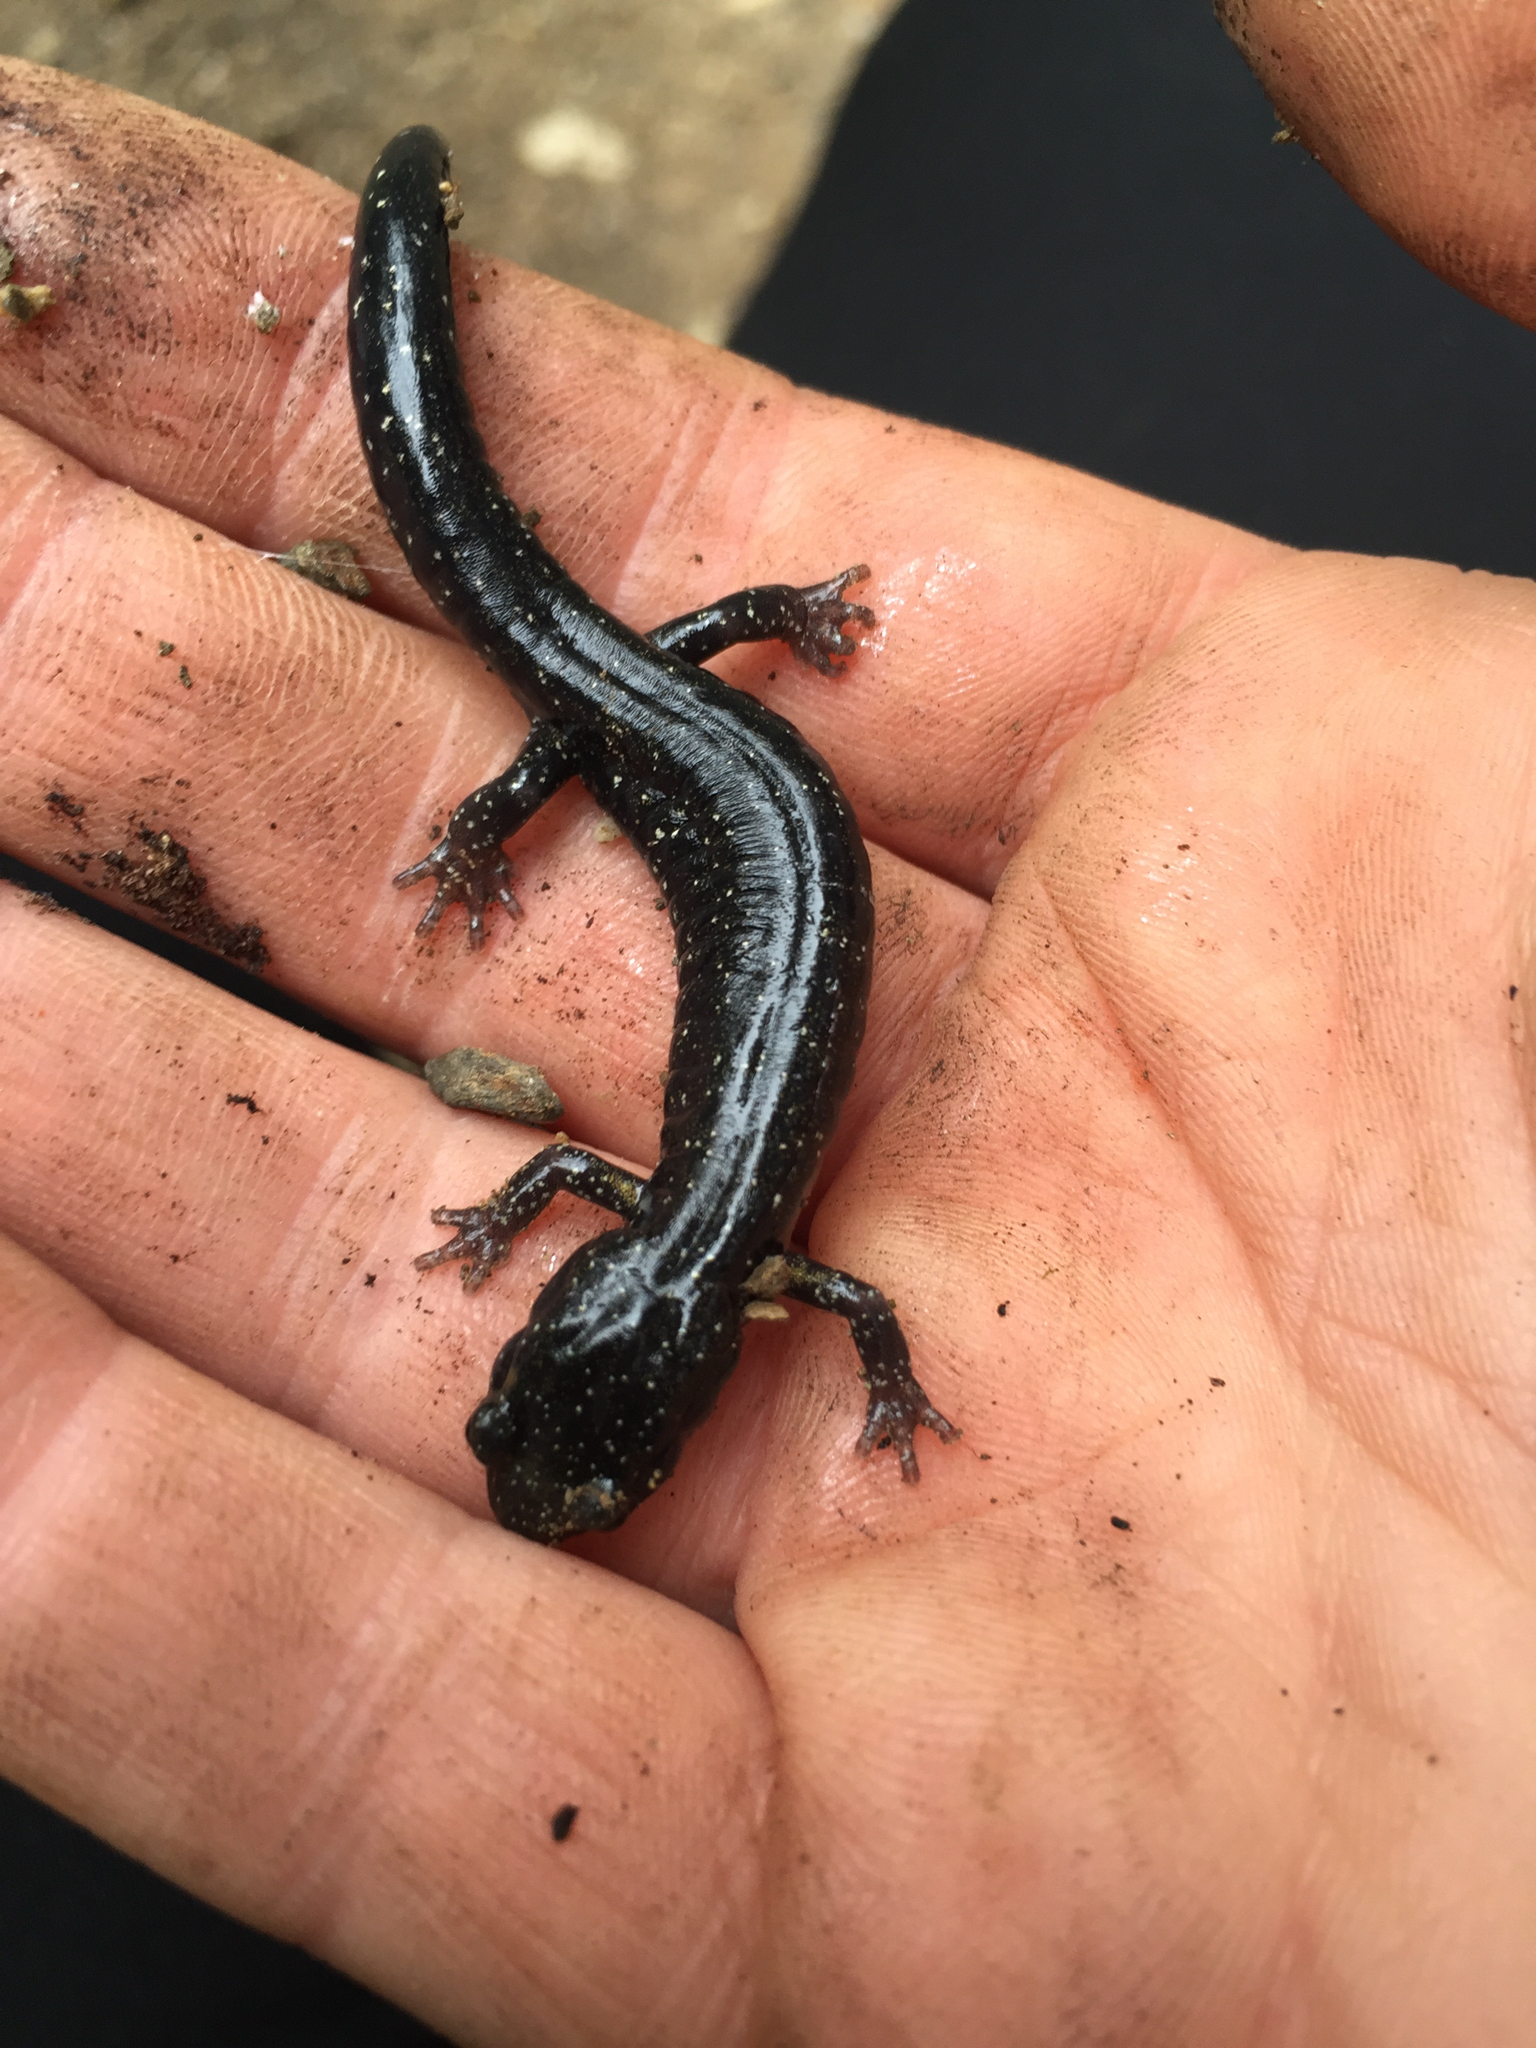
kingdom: Animalia
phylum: Chordata
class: Amphibia
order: Caudata
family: Plethodontidae
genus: Aneides
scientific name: Aneides flavipunctatus
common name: Black salamander
